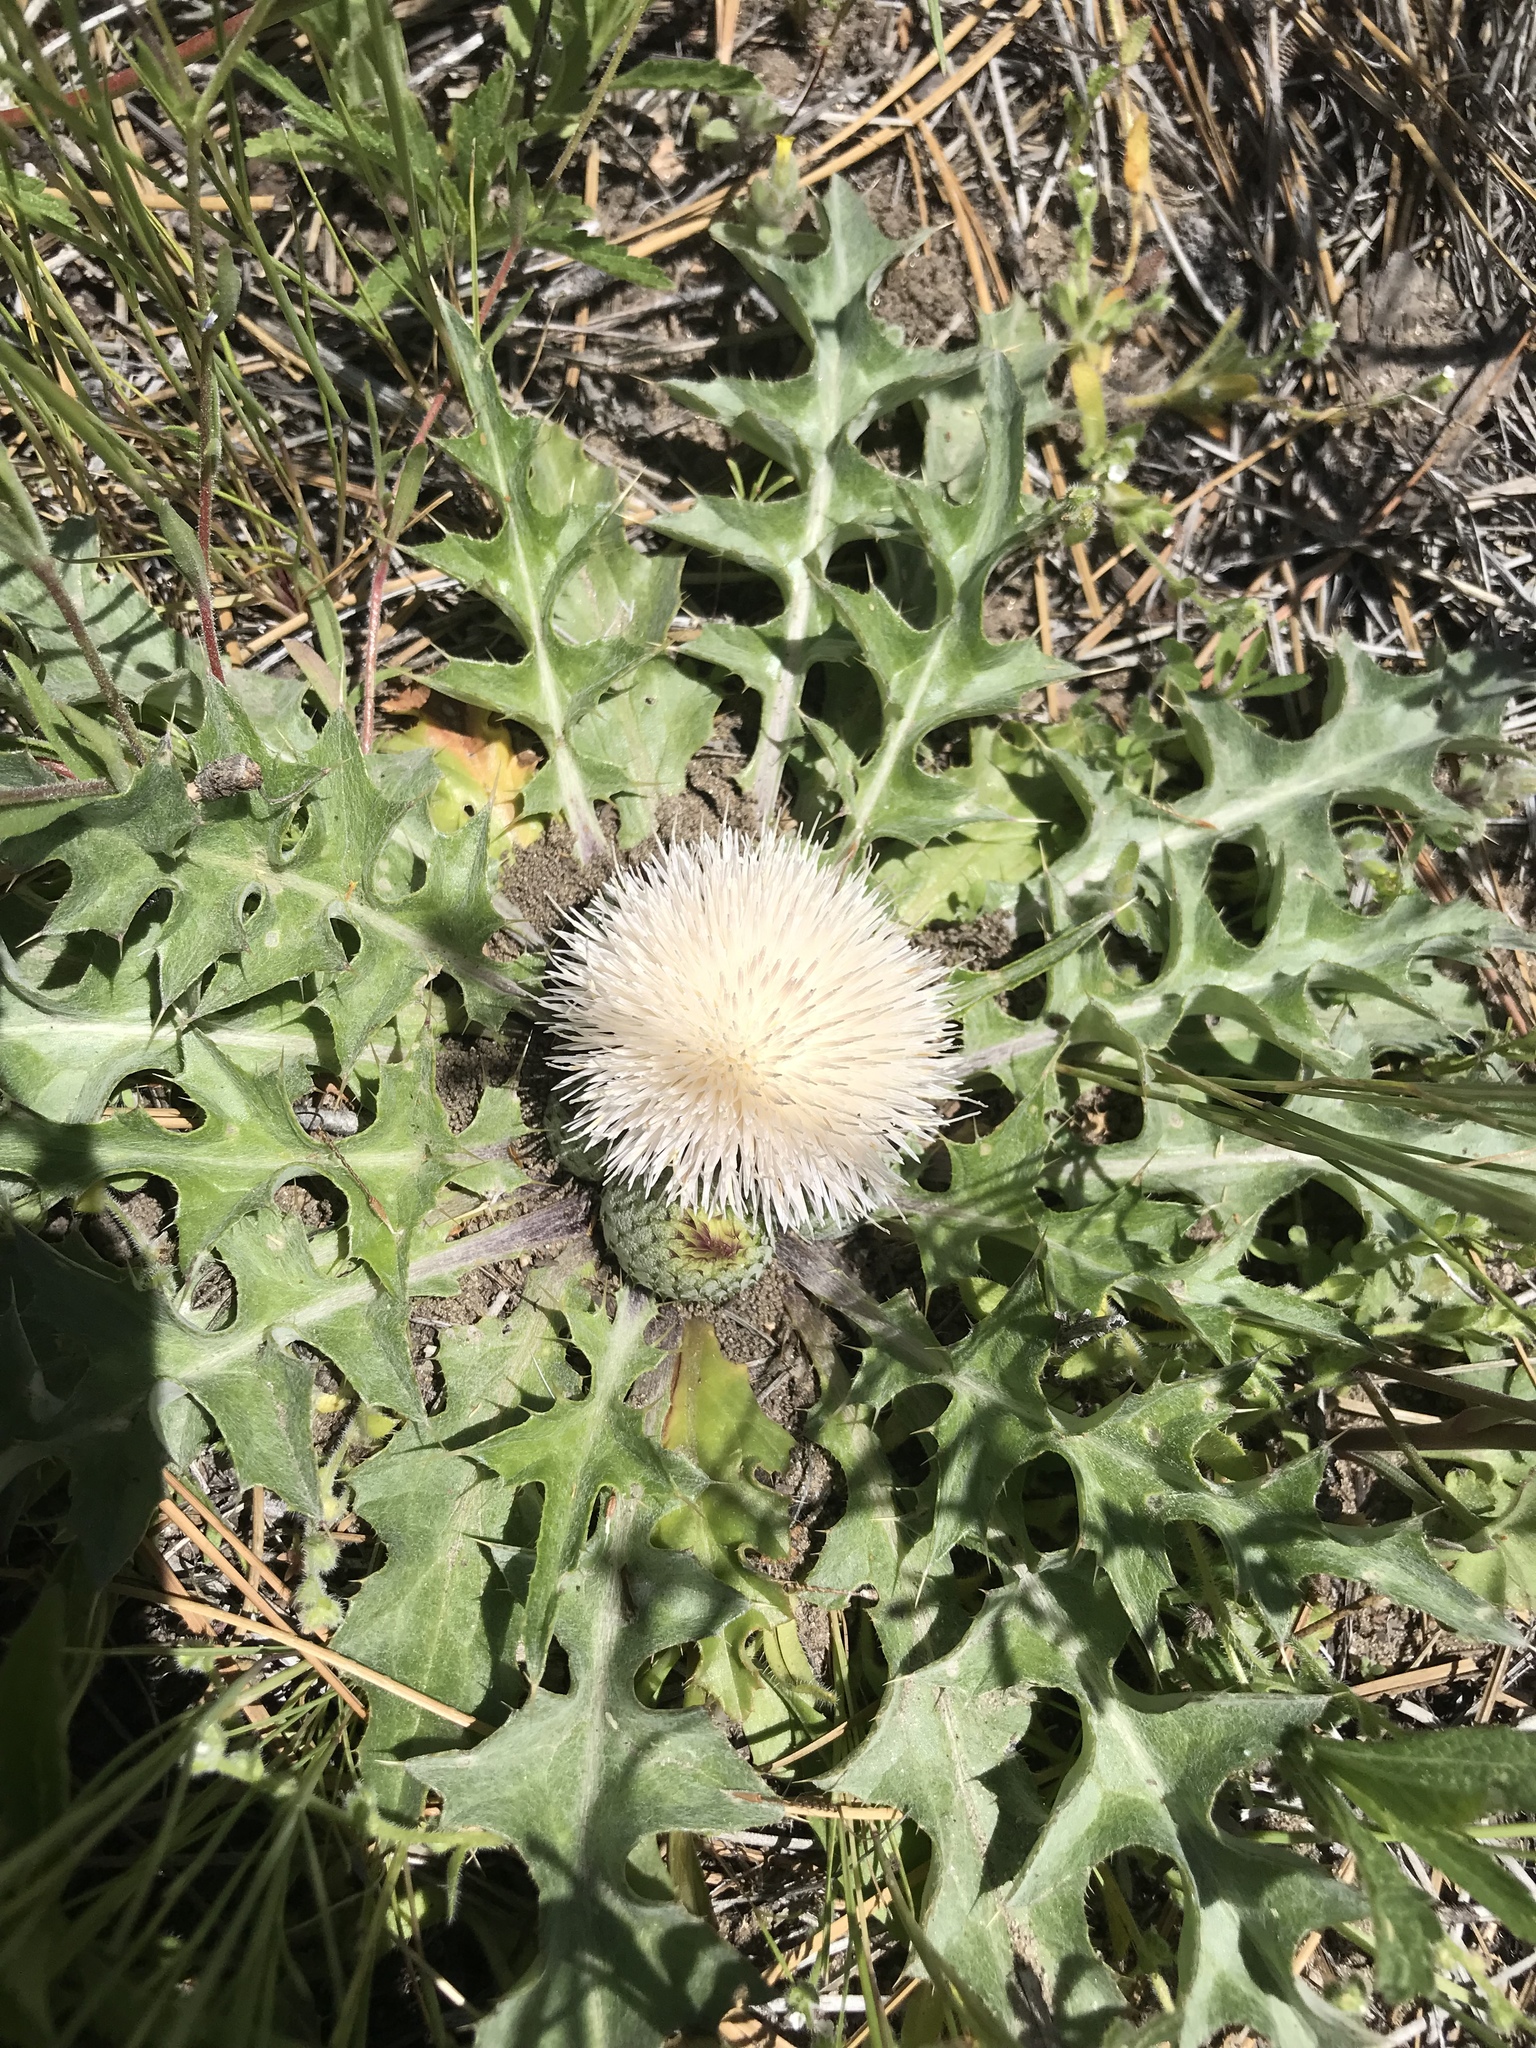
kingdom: Plantae
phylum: Tracheophyta
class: Magnoliopsida
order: Asterales
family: Asteraceae
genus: Cirsium
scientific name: Cirsium scariosum
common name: Meadow thistle
